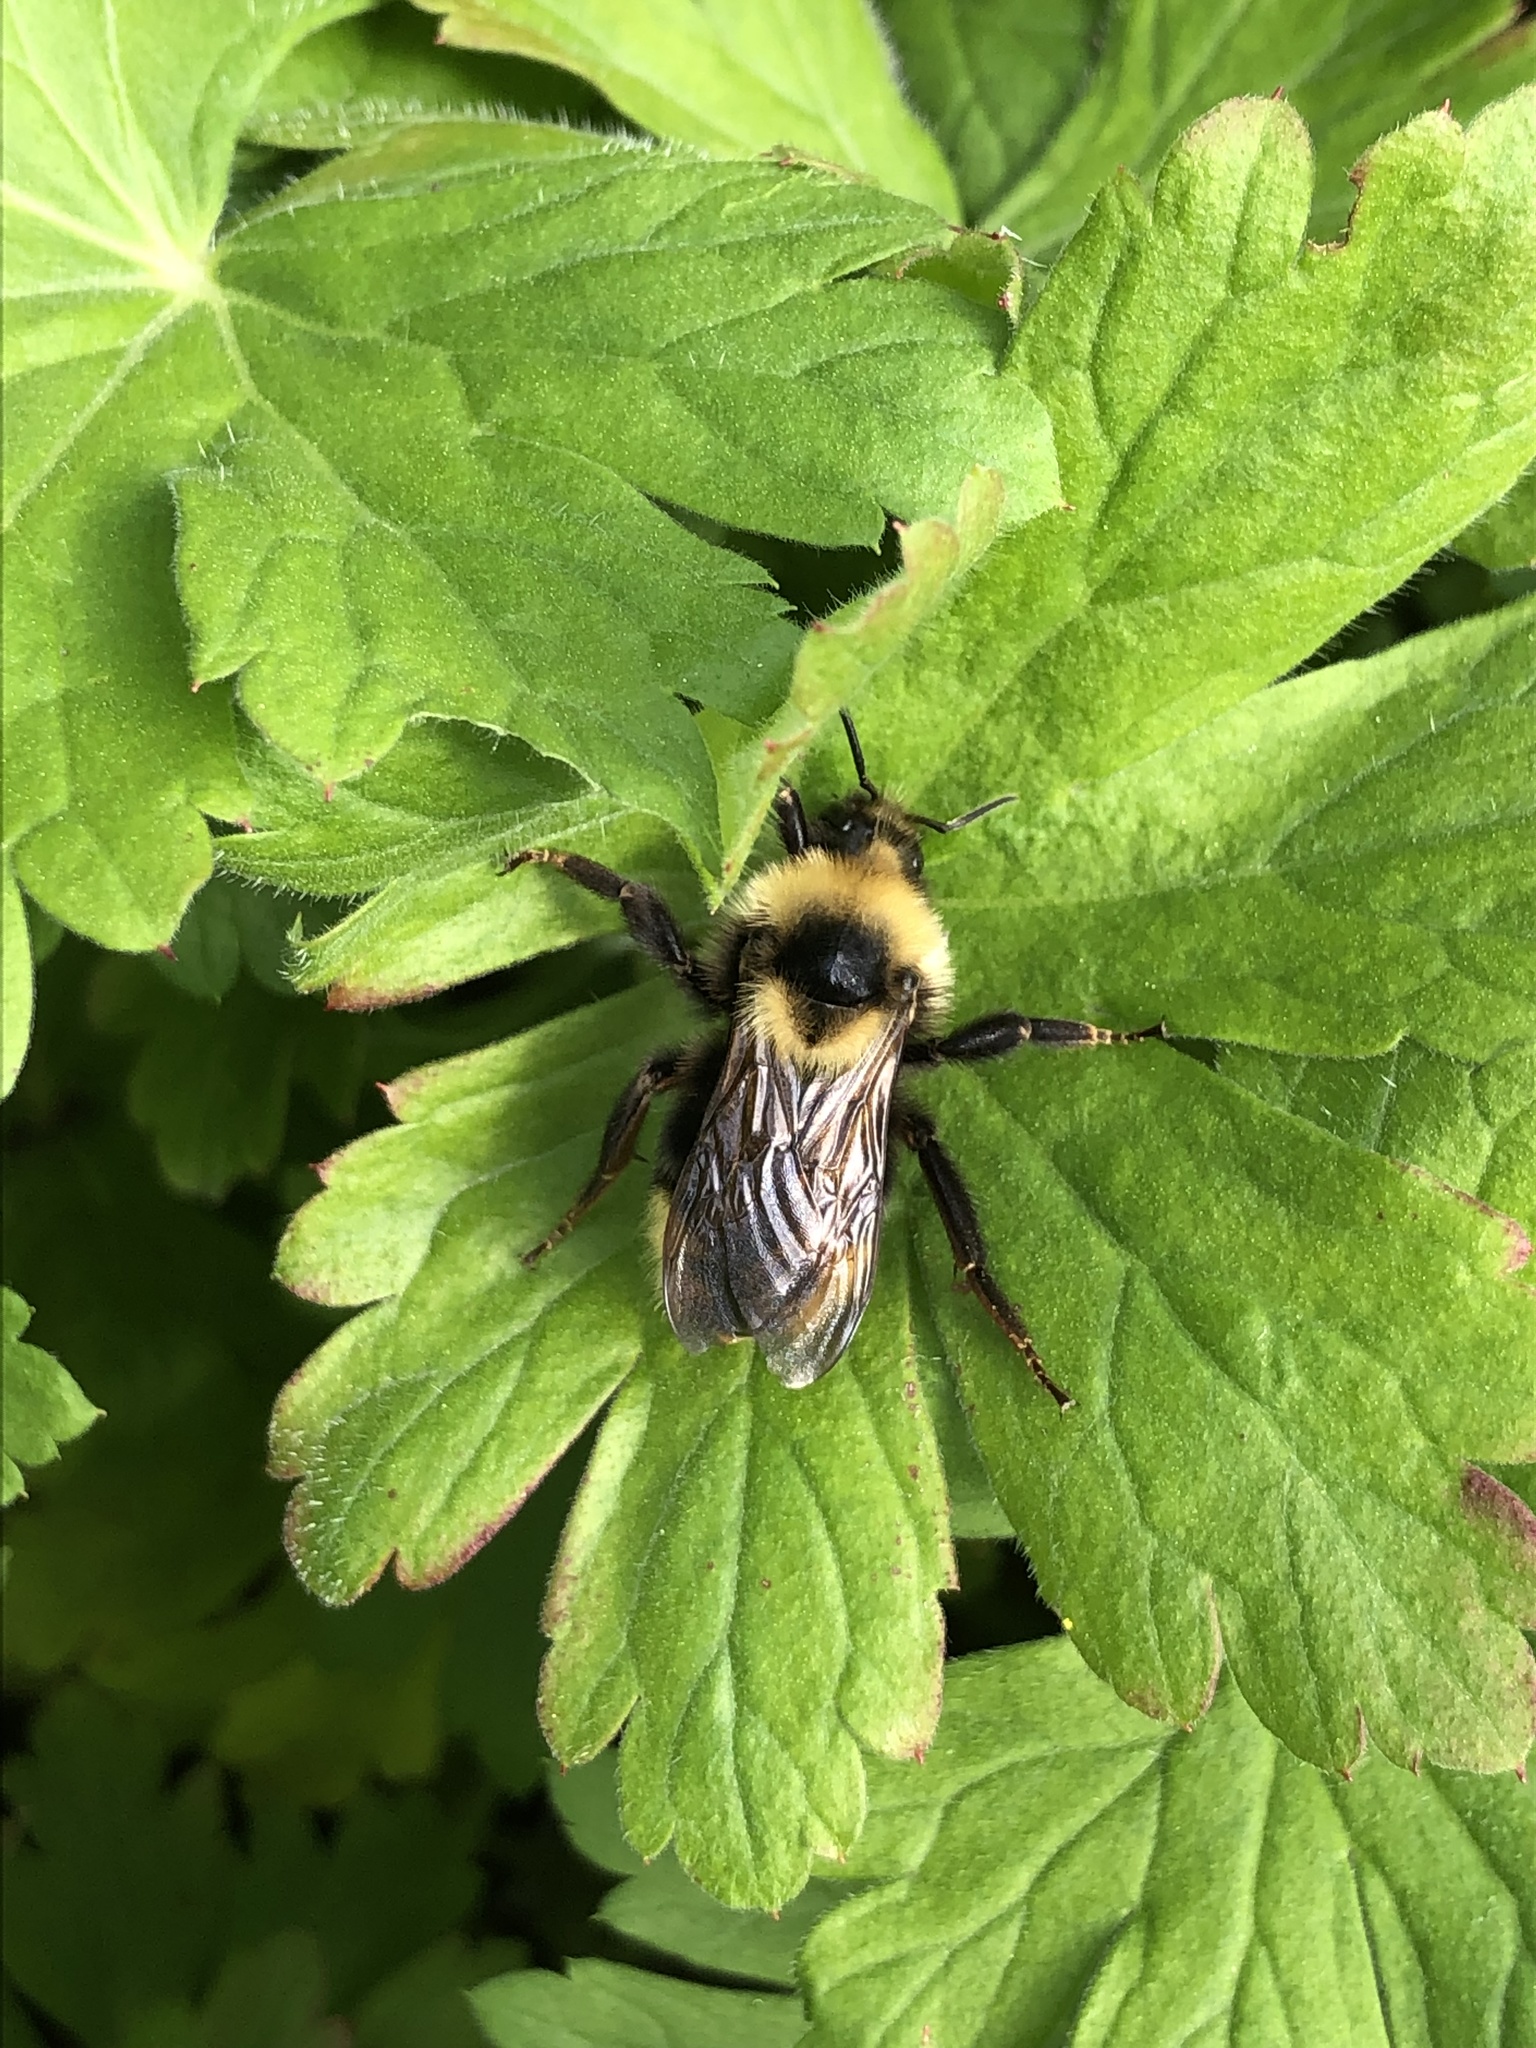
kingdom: Animalia
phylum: Arthropoda
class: Insecta
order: Hymenoptera
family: Apidae
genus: Bombus
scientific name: Bombus insularis
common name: Indiscriminate cuckoo bumble bee
